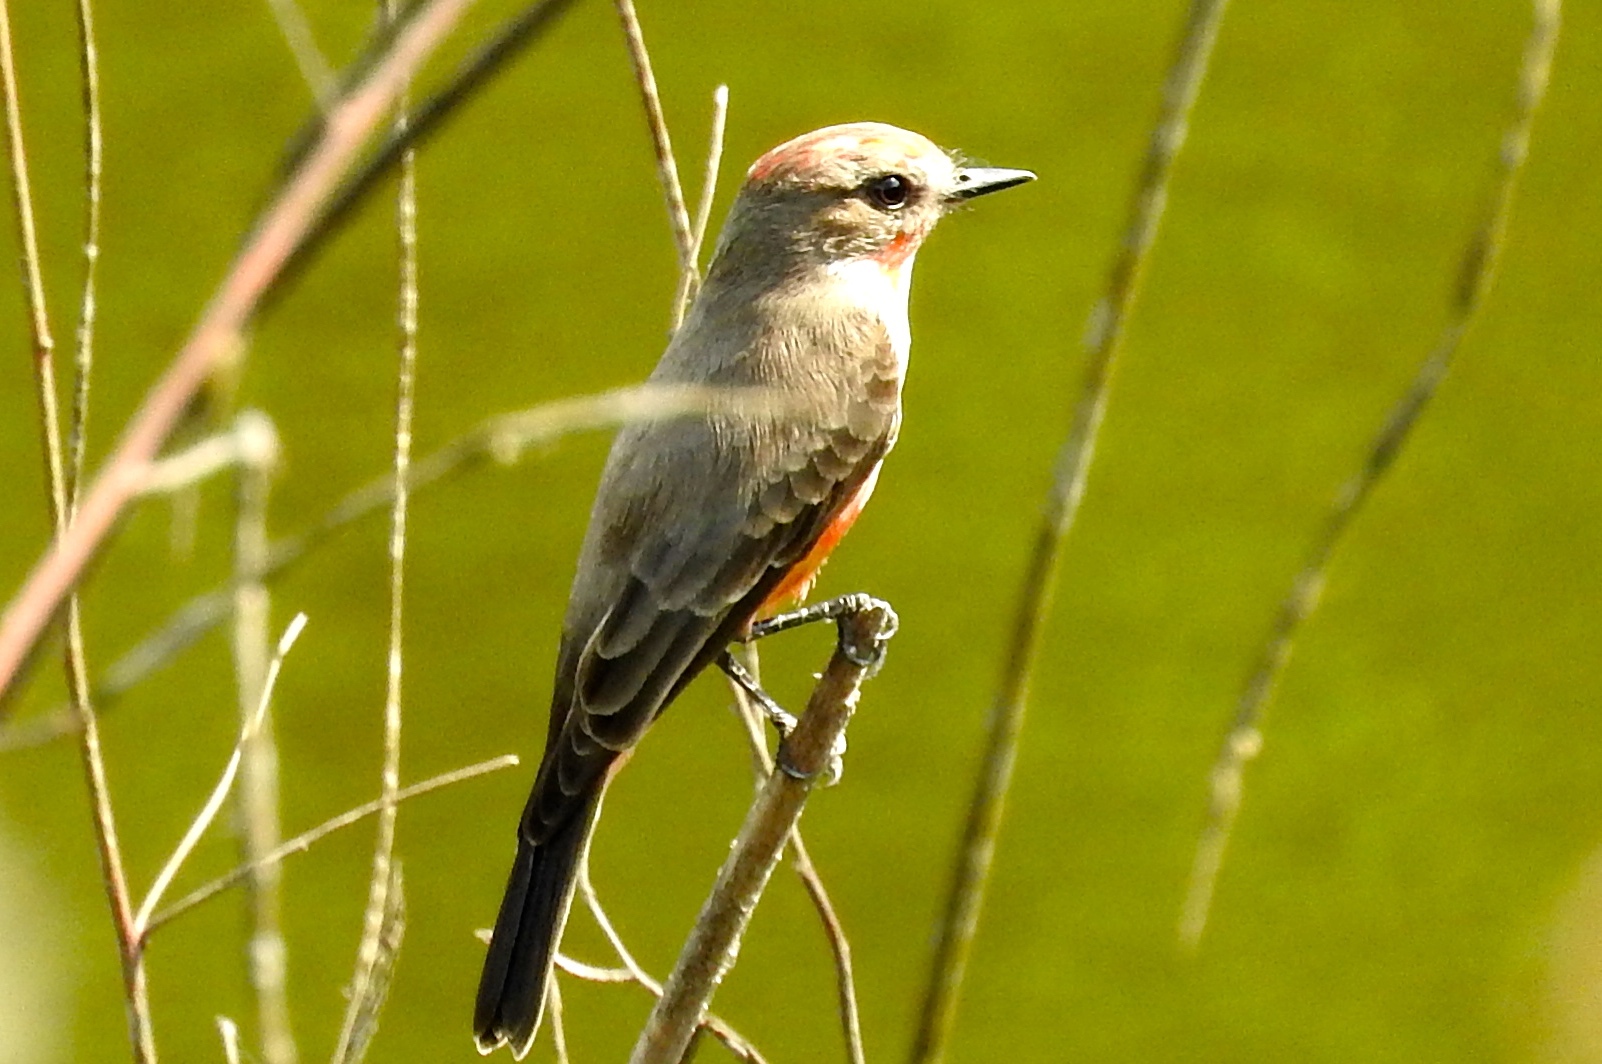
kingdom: Animalia
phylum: Chordata
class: Aves
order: Passeriformes
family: Tyrannidae
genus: Pyrocephalus
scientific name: Pyrocephalus rubinus
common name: Vermilion flycatcher
